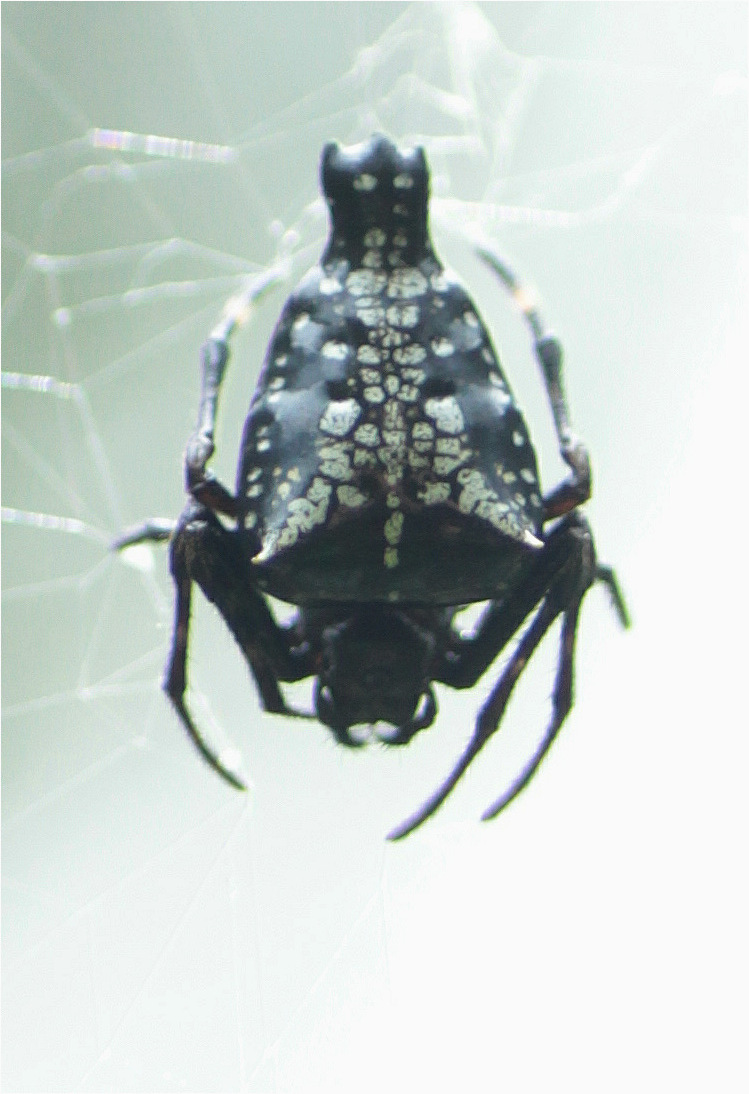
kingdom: Animalia
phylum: Arthropoda
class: Arachnida
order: Araneae
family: Araneidae
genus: Witica
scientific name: Witica crassicauda
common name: Orb weavers
